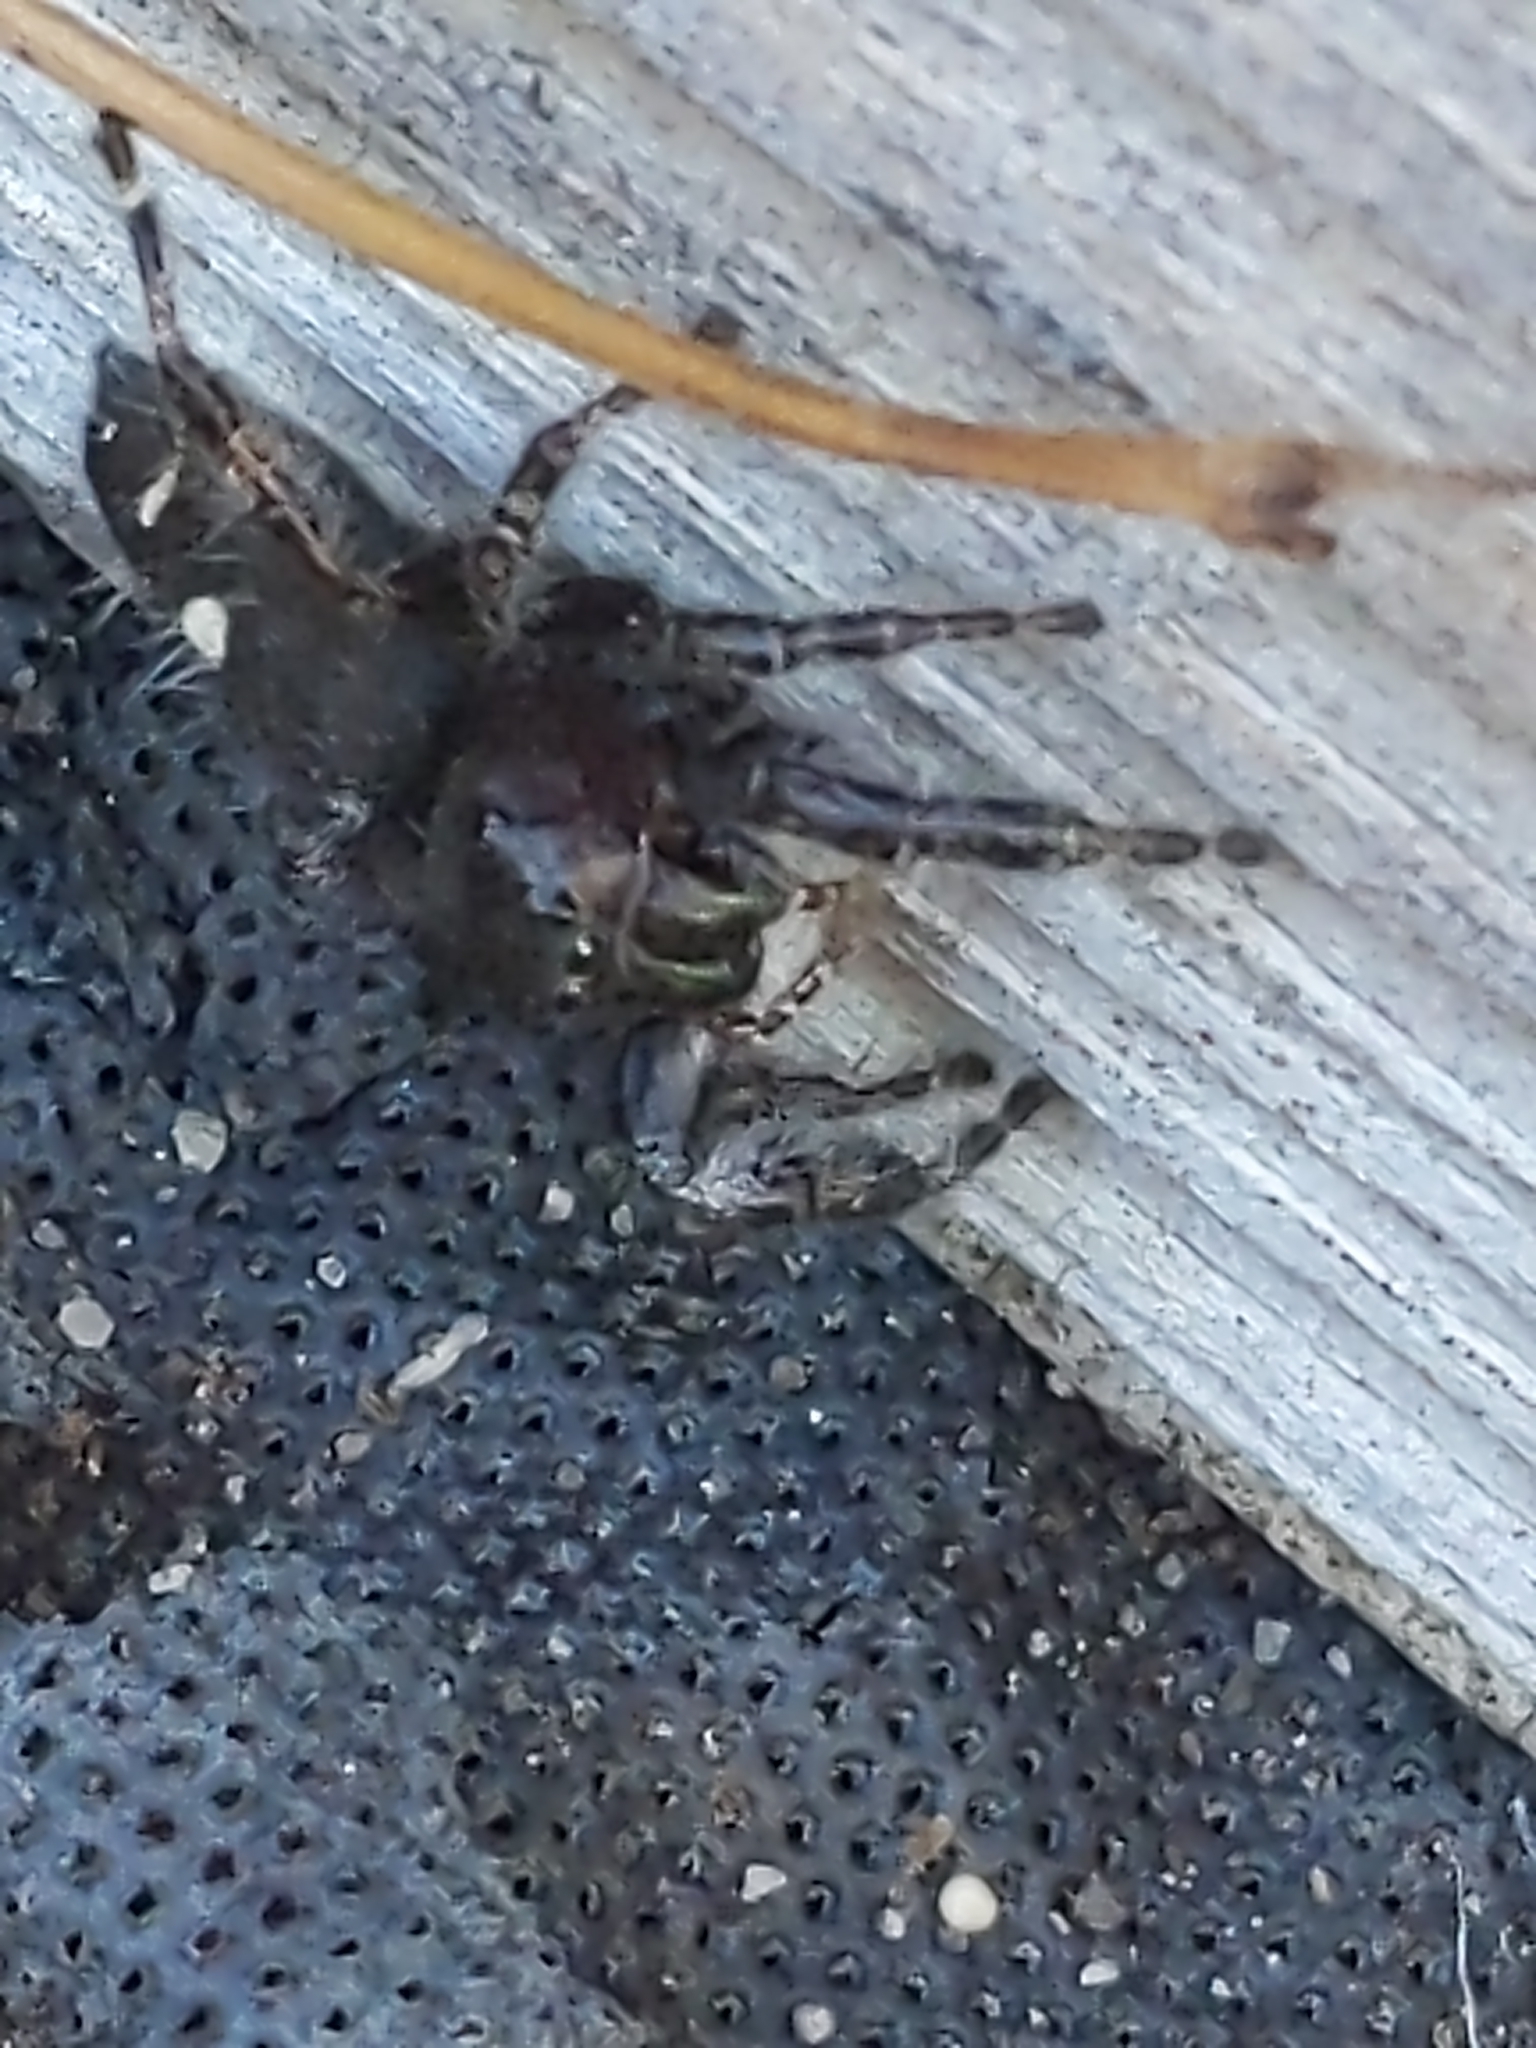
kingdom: Animalia
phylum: Arthropoda
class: Arachnida
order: Araneae
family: Salticidae
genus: Phidippus
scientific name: Phidippus audax
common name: Bold jumper
